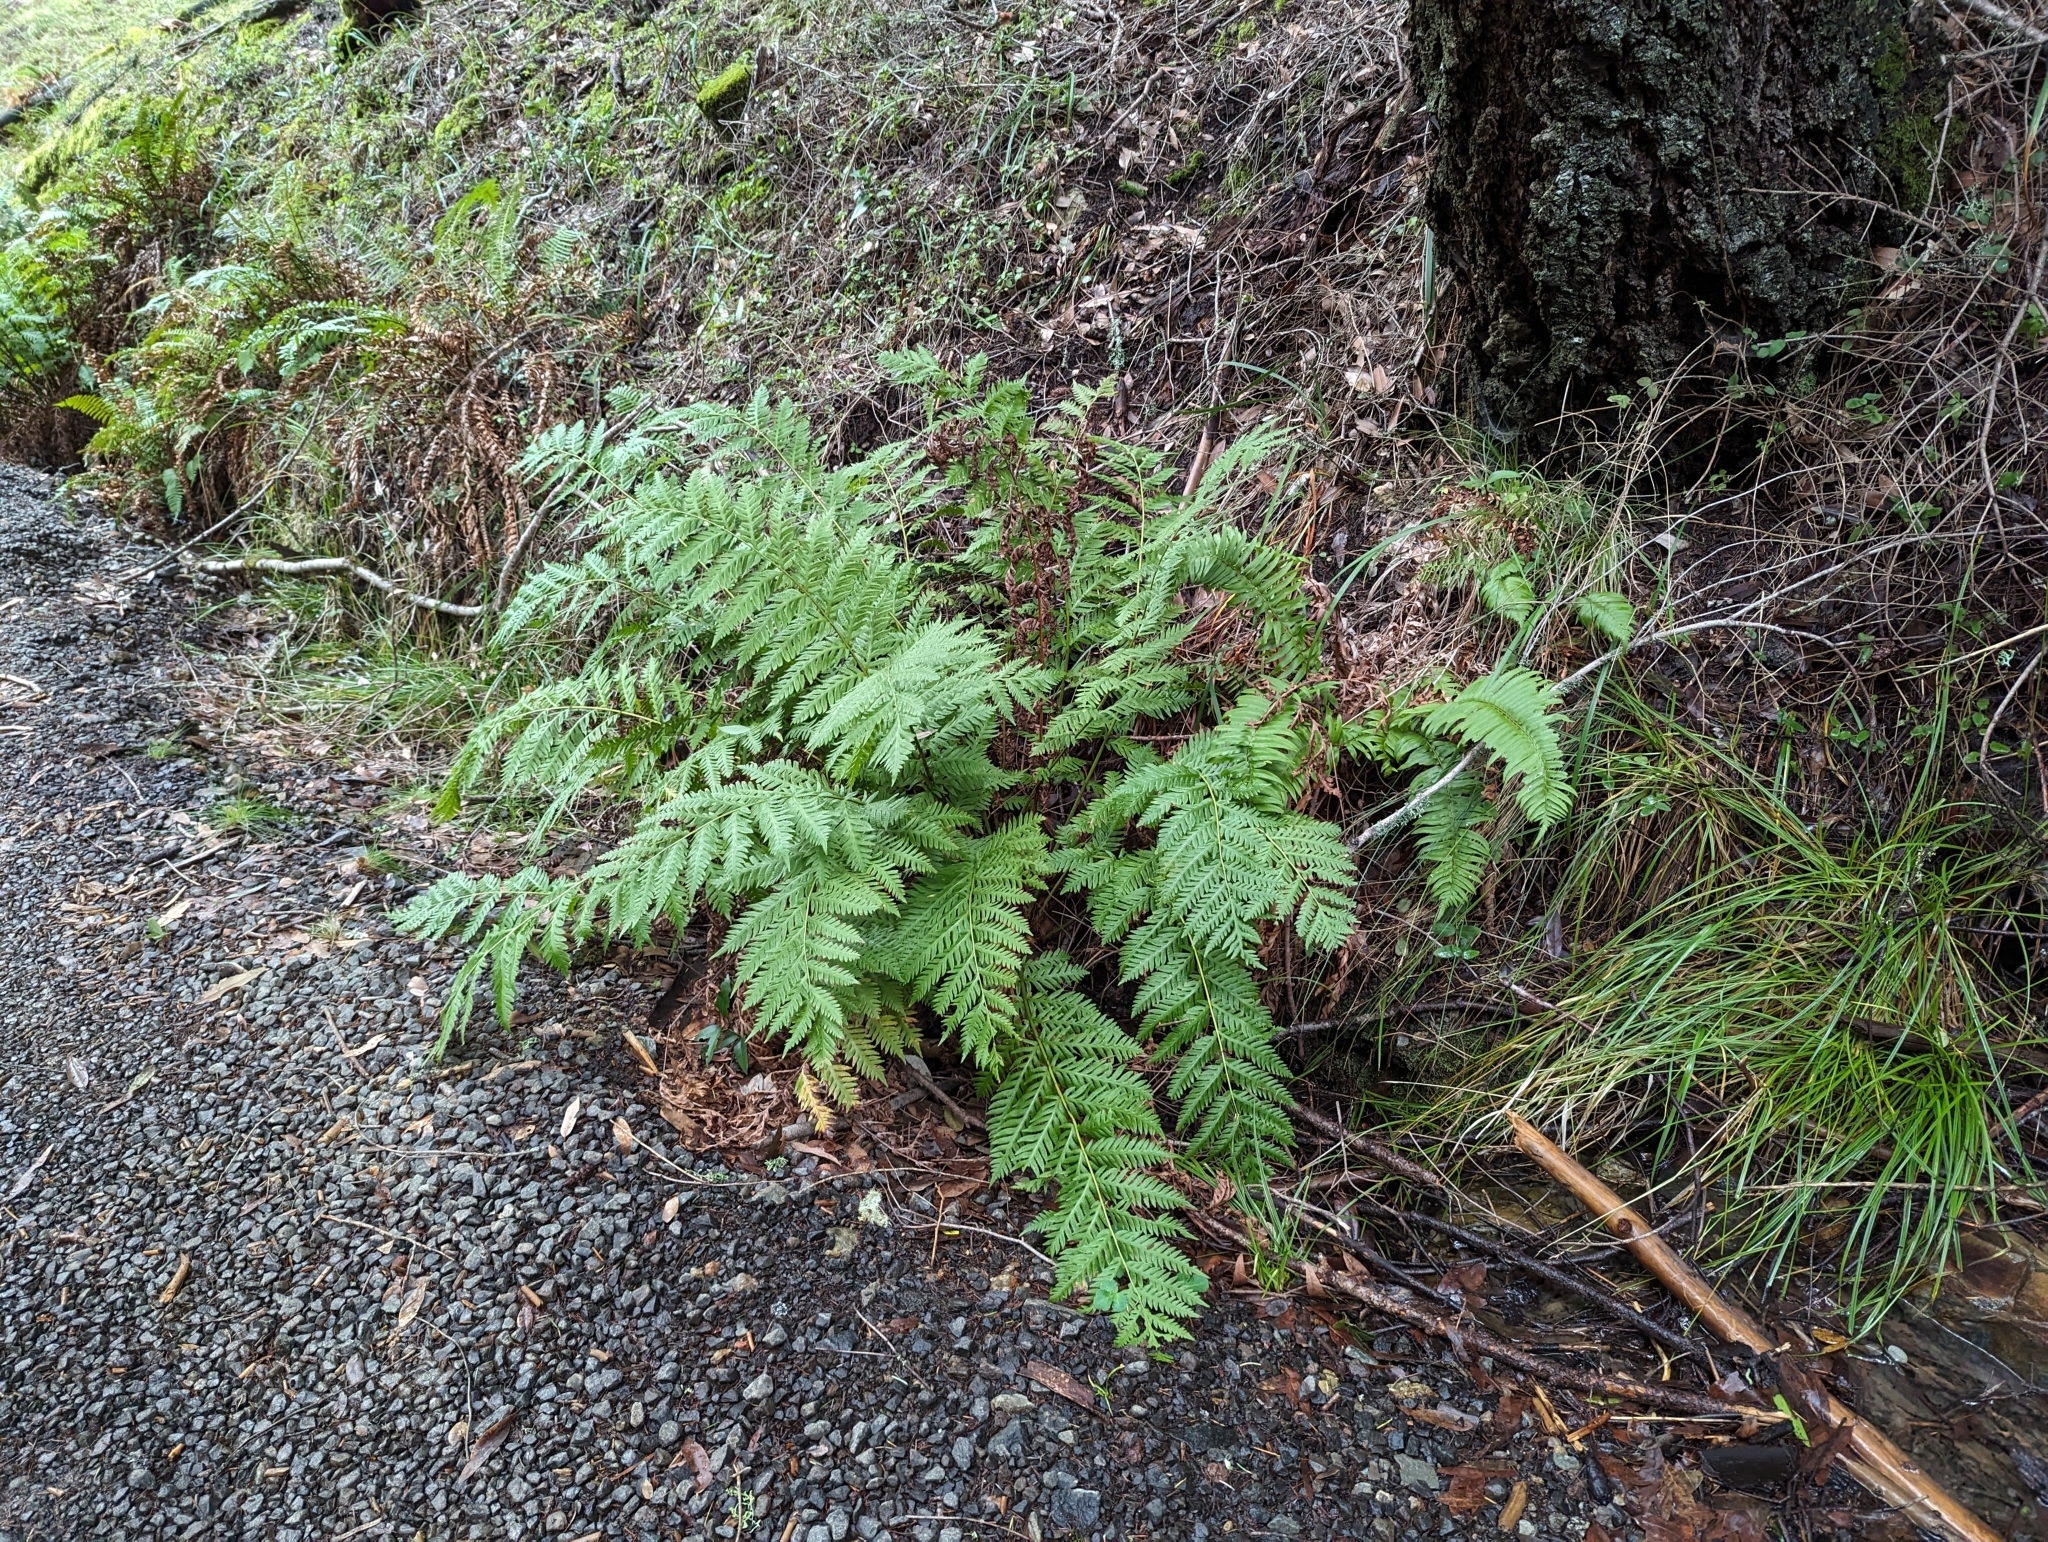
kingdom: Plantae
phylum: Tracheophyta
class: Polypodiopsida
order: Polypodiales
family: Blechnaceae
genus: Woodwardia
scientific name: Woodwardia fimbriata
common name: Giant chain fern
